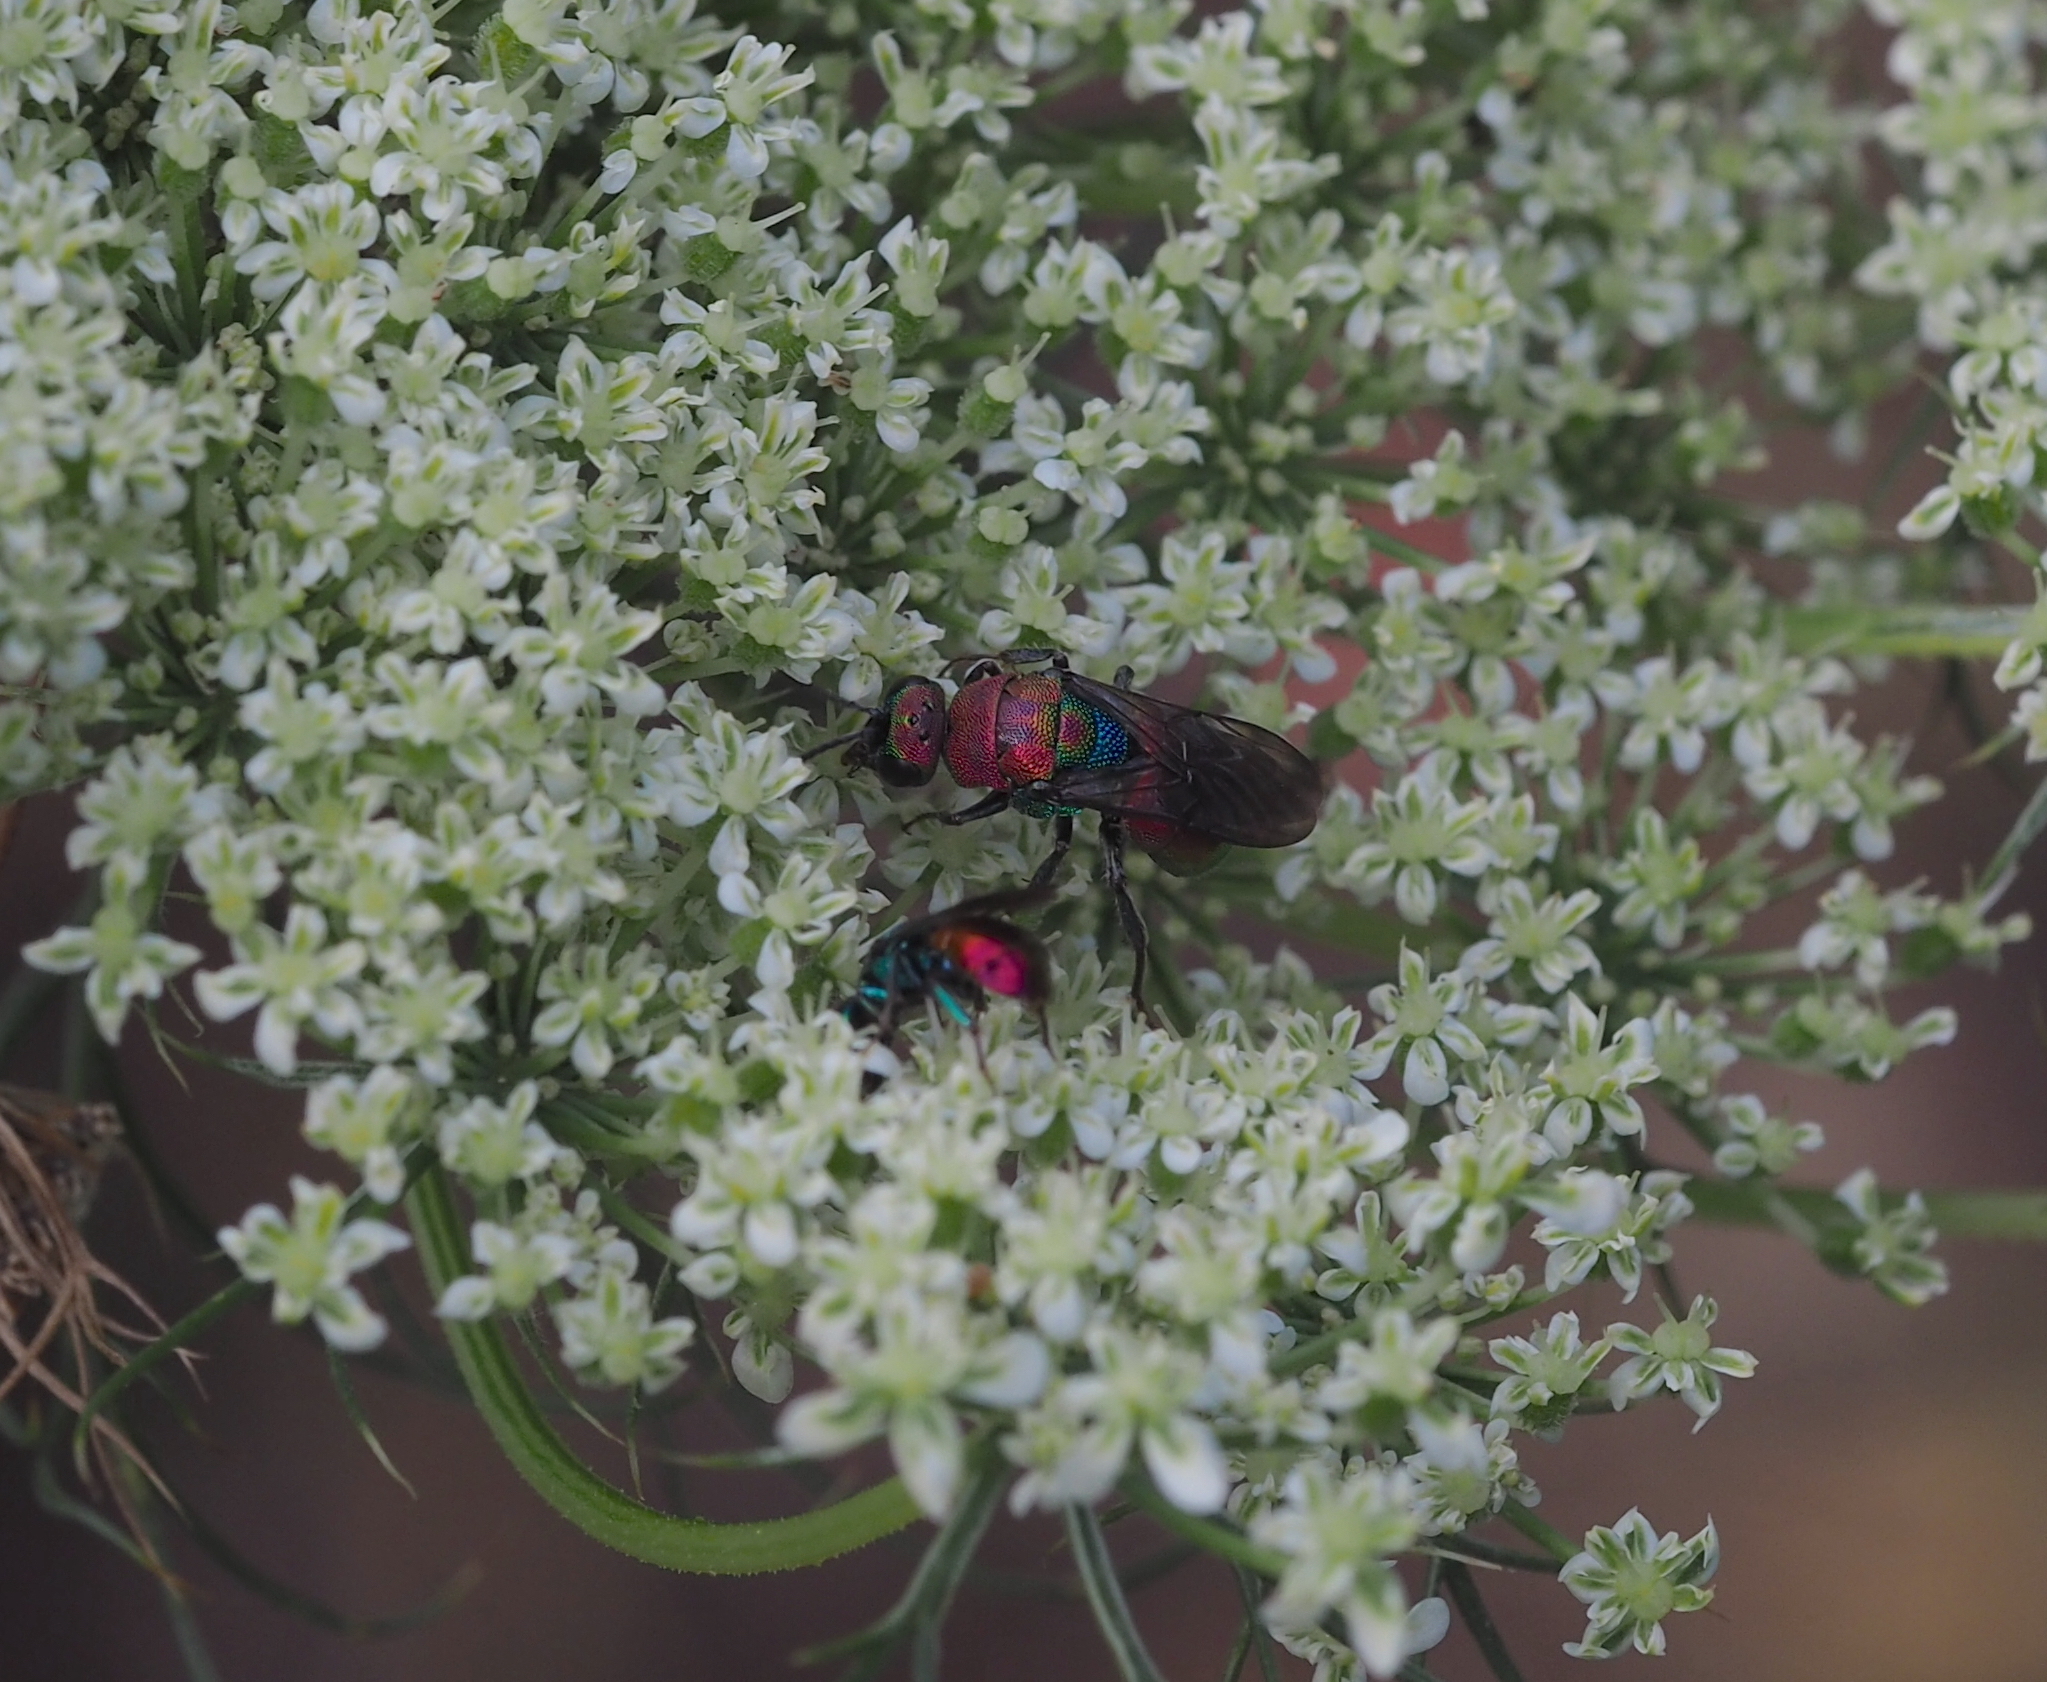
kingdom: Animalia
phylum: Arthropoda
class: Insecta
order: Hymenoptera
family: Chrysididae
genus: Hedychrum
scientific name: Hedychrum rutilans
